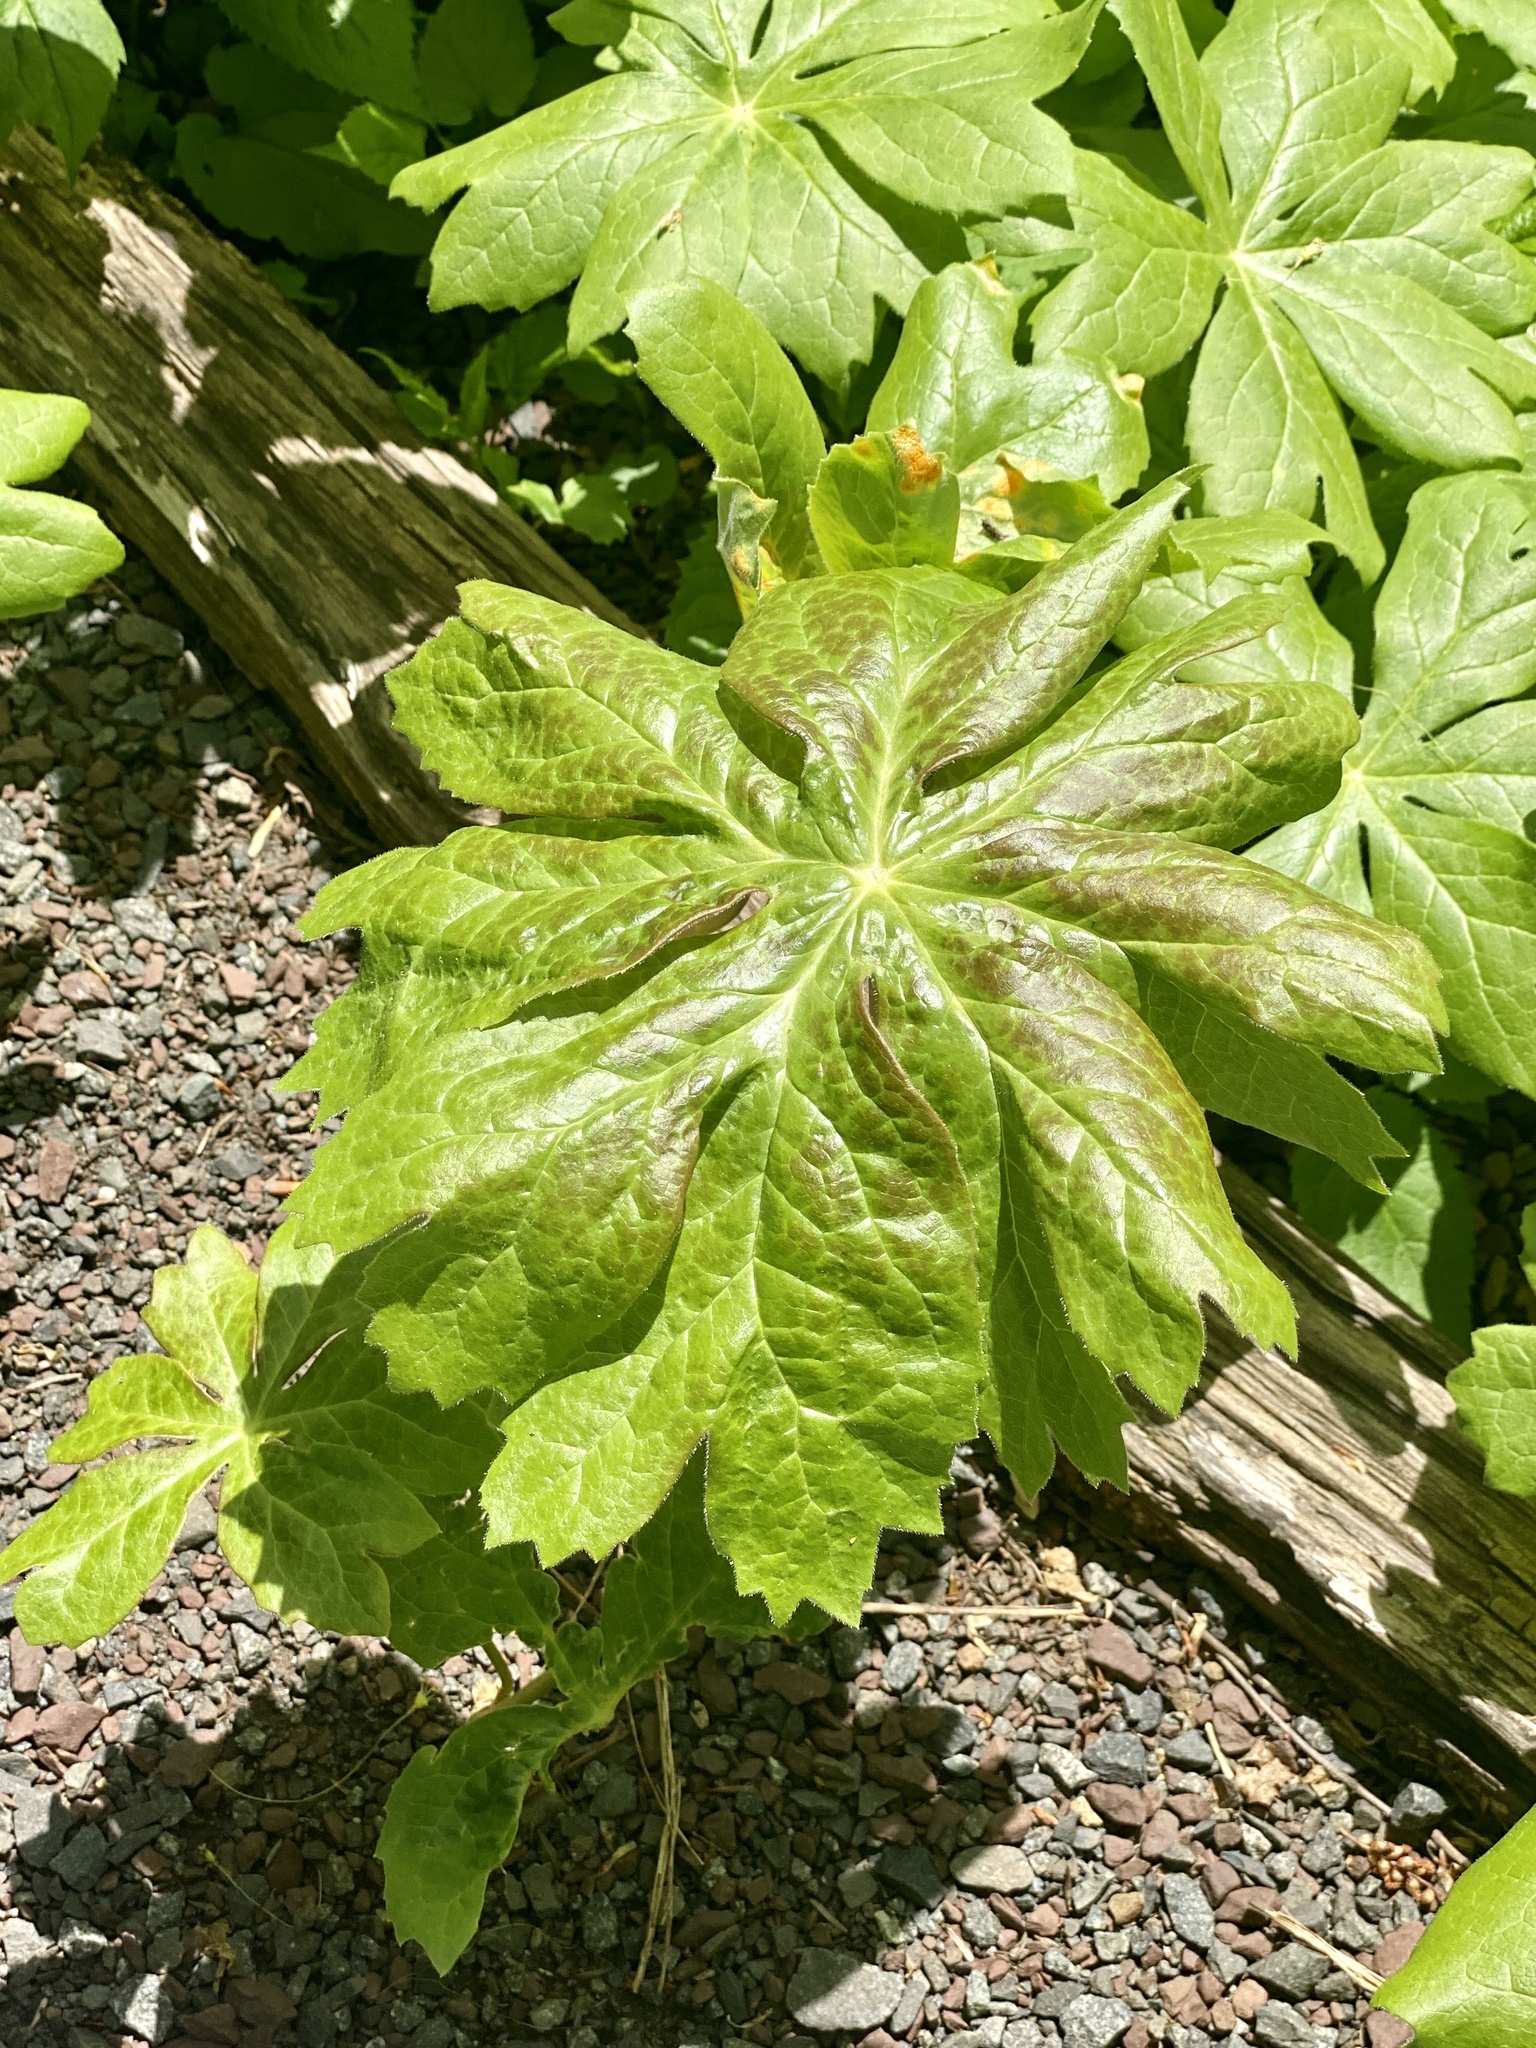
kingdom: Plantae
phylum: Tracheophyta
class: Magnoliopsida
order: Ranunculales
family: Berberidaceae
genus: Podophyllum
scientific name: Podophyllum peltatum
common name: Wild mandrake
